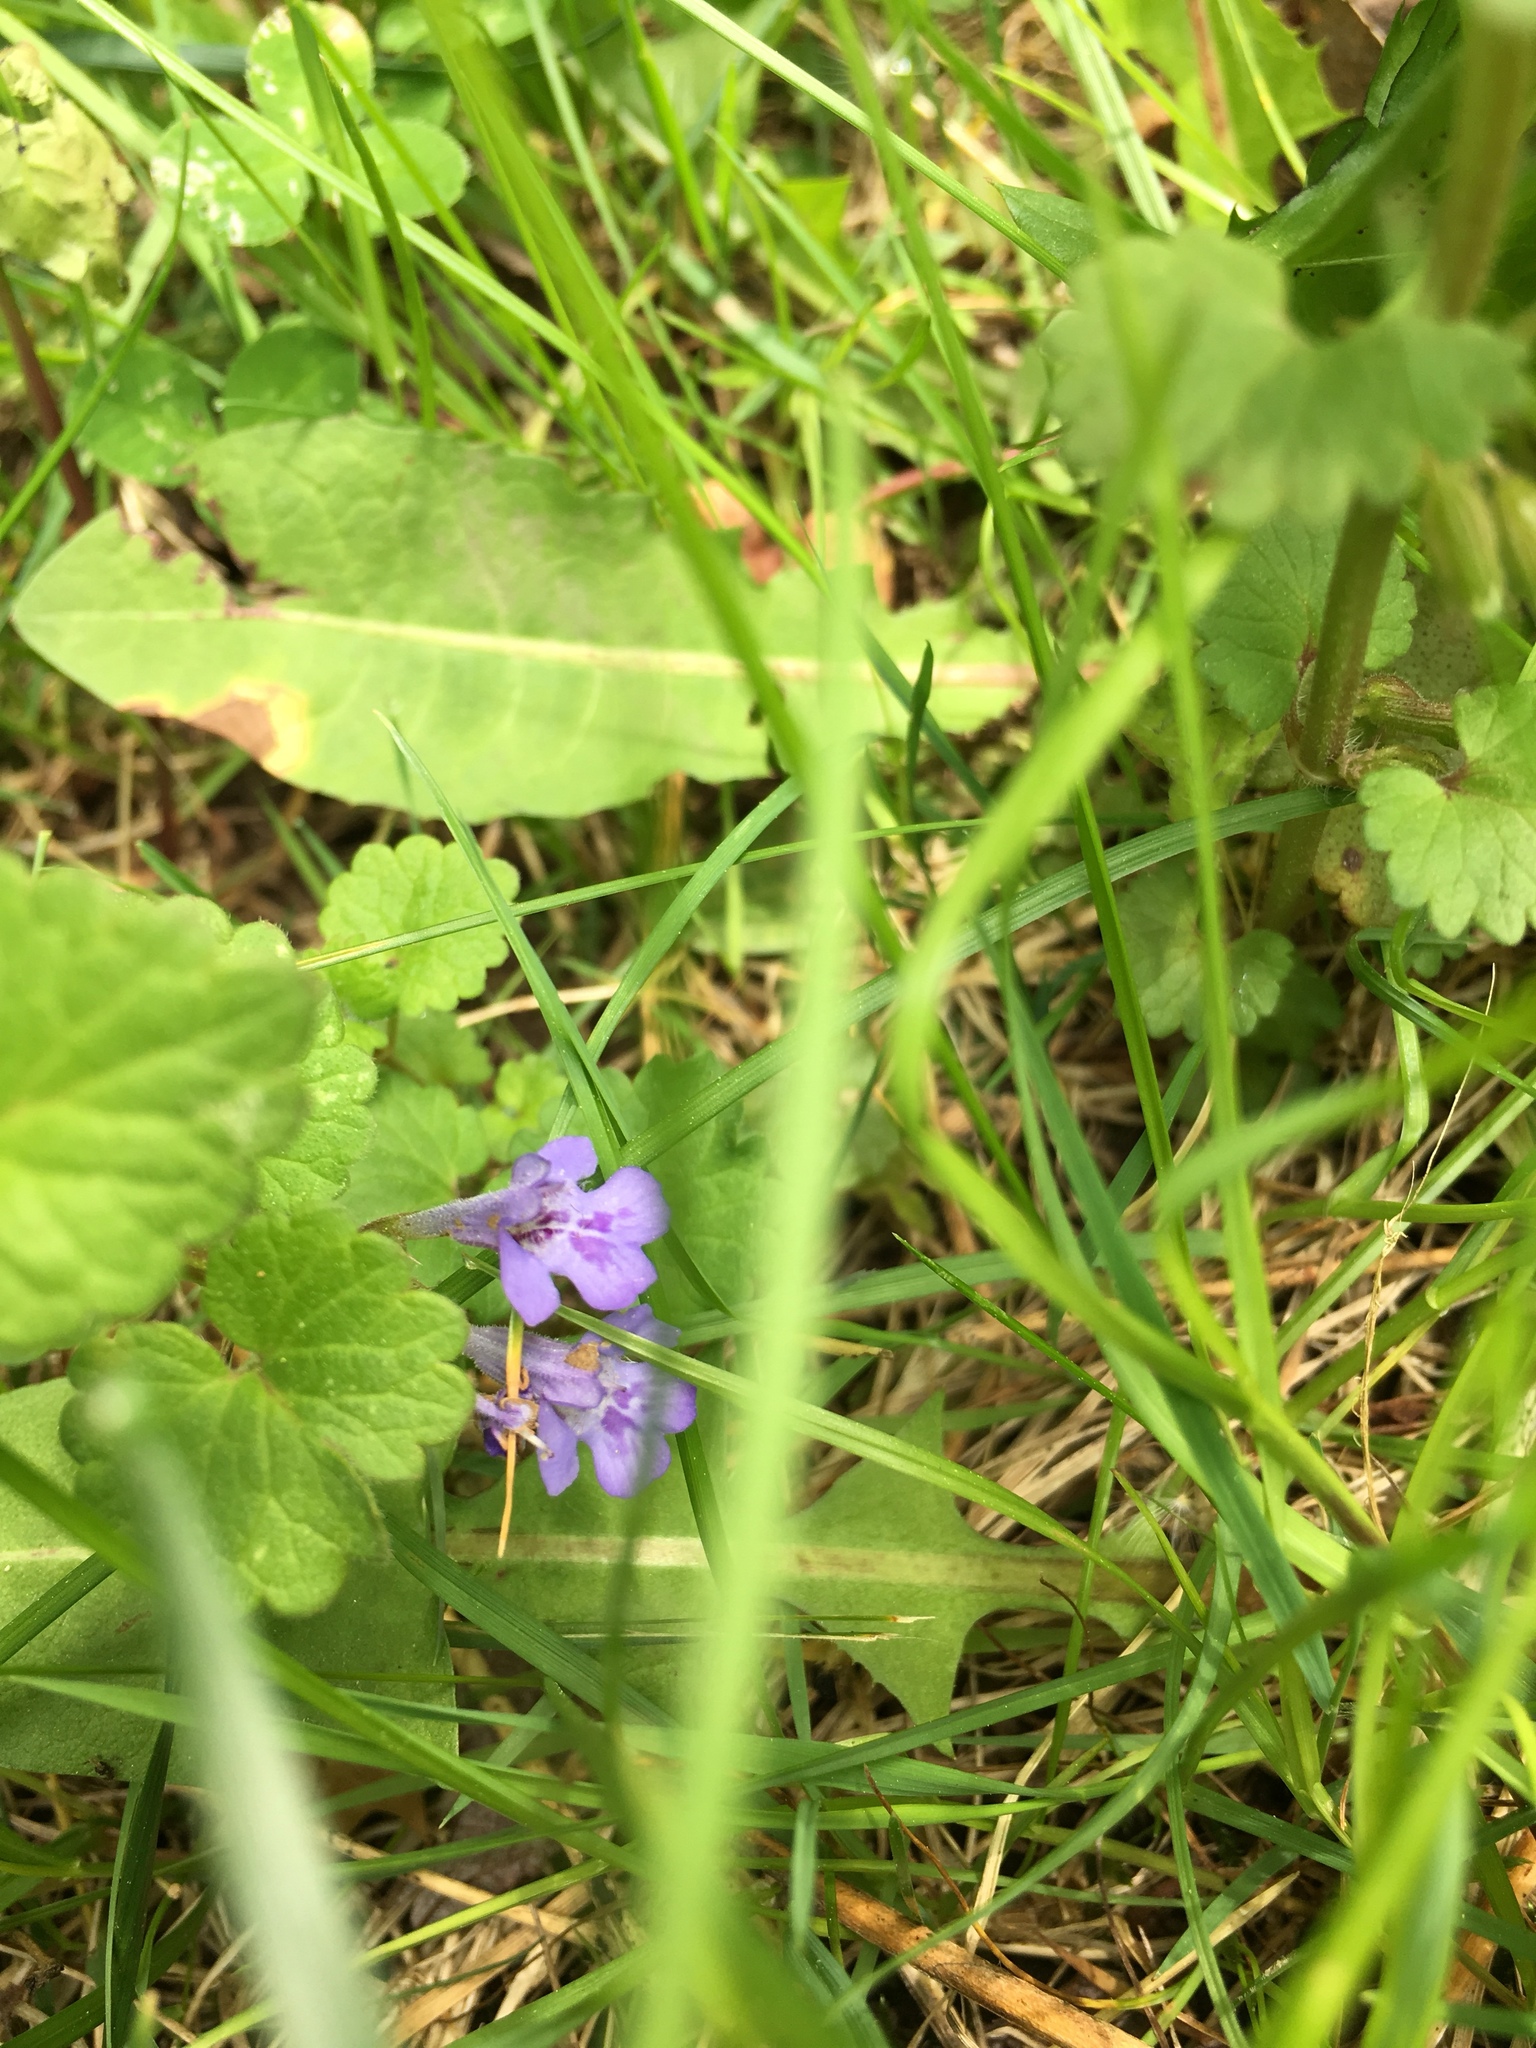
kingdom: Plantae
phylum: Tracheophyta
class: Magnoliopsida
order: Lamiales
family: Lamiaceae
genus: Glechoma
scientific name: Glechoma hederacea
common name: Ground ivy
